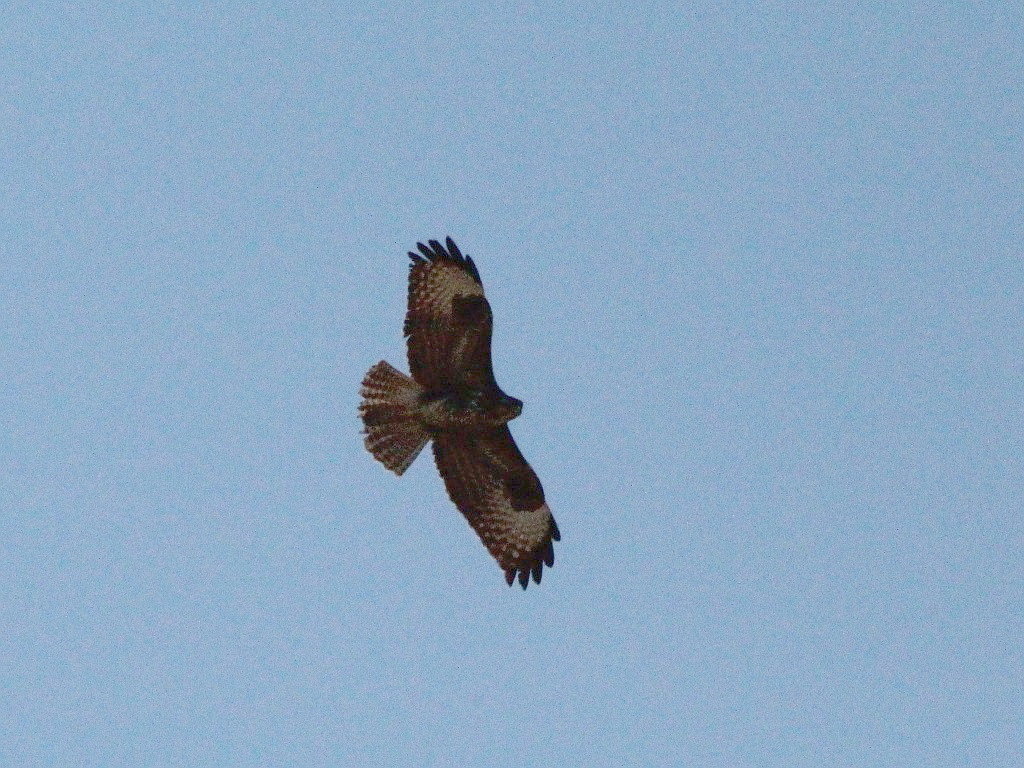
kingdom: Animalia
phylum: Chordata
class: Aves
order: Accipitriformes
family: Accipitridae
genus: Buteo
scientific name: Buteo buteo
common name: Common buzzard
